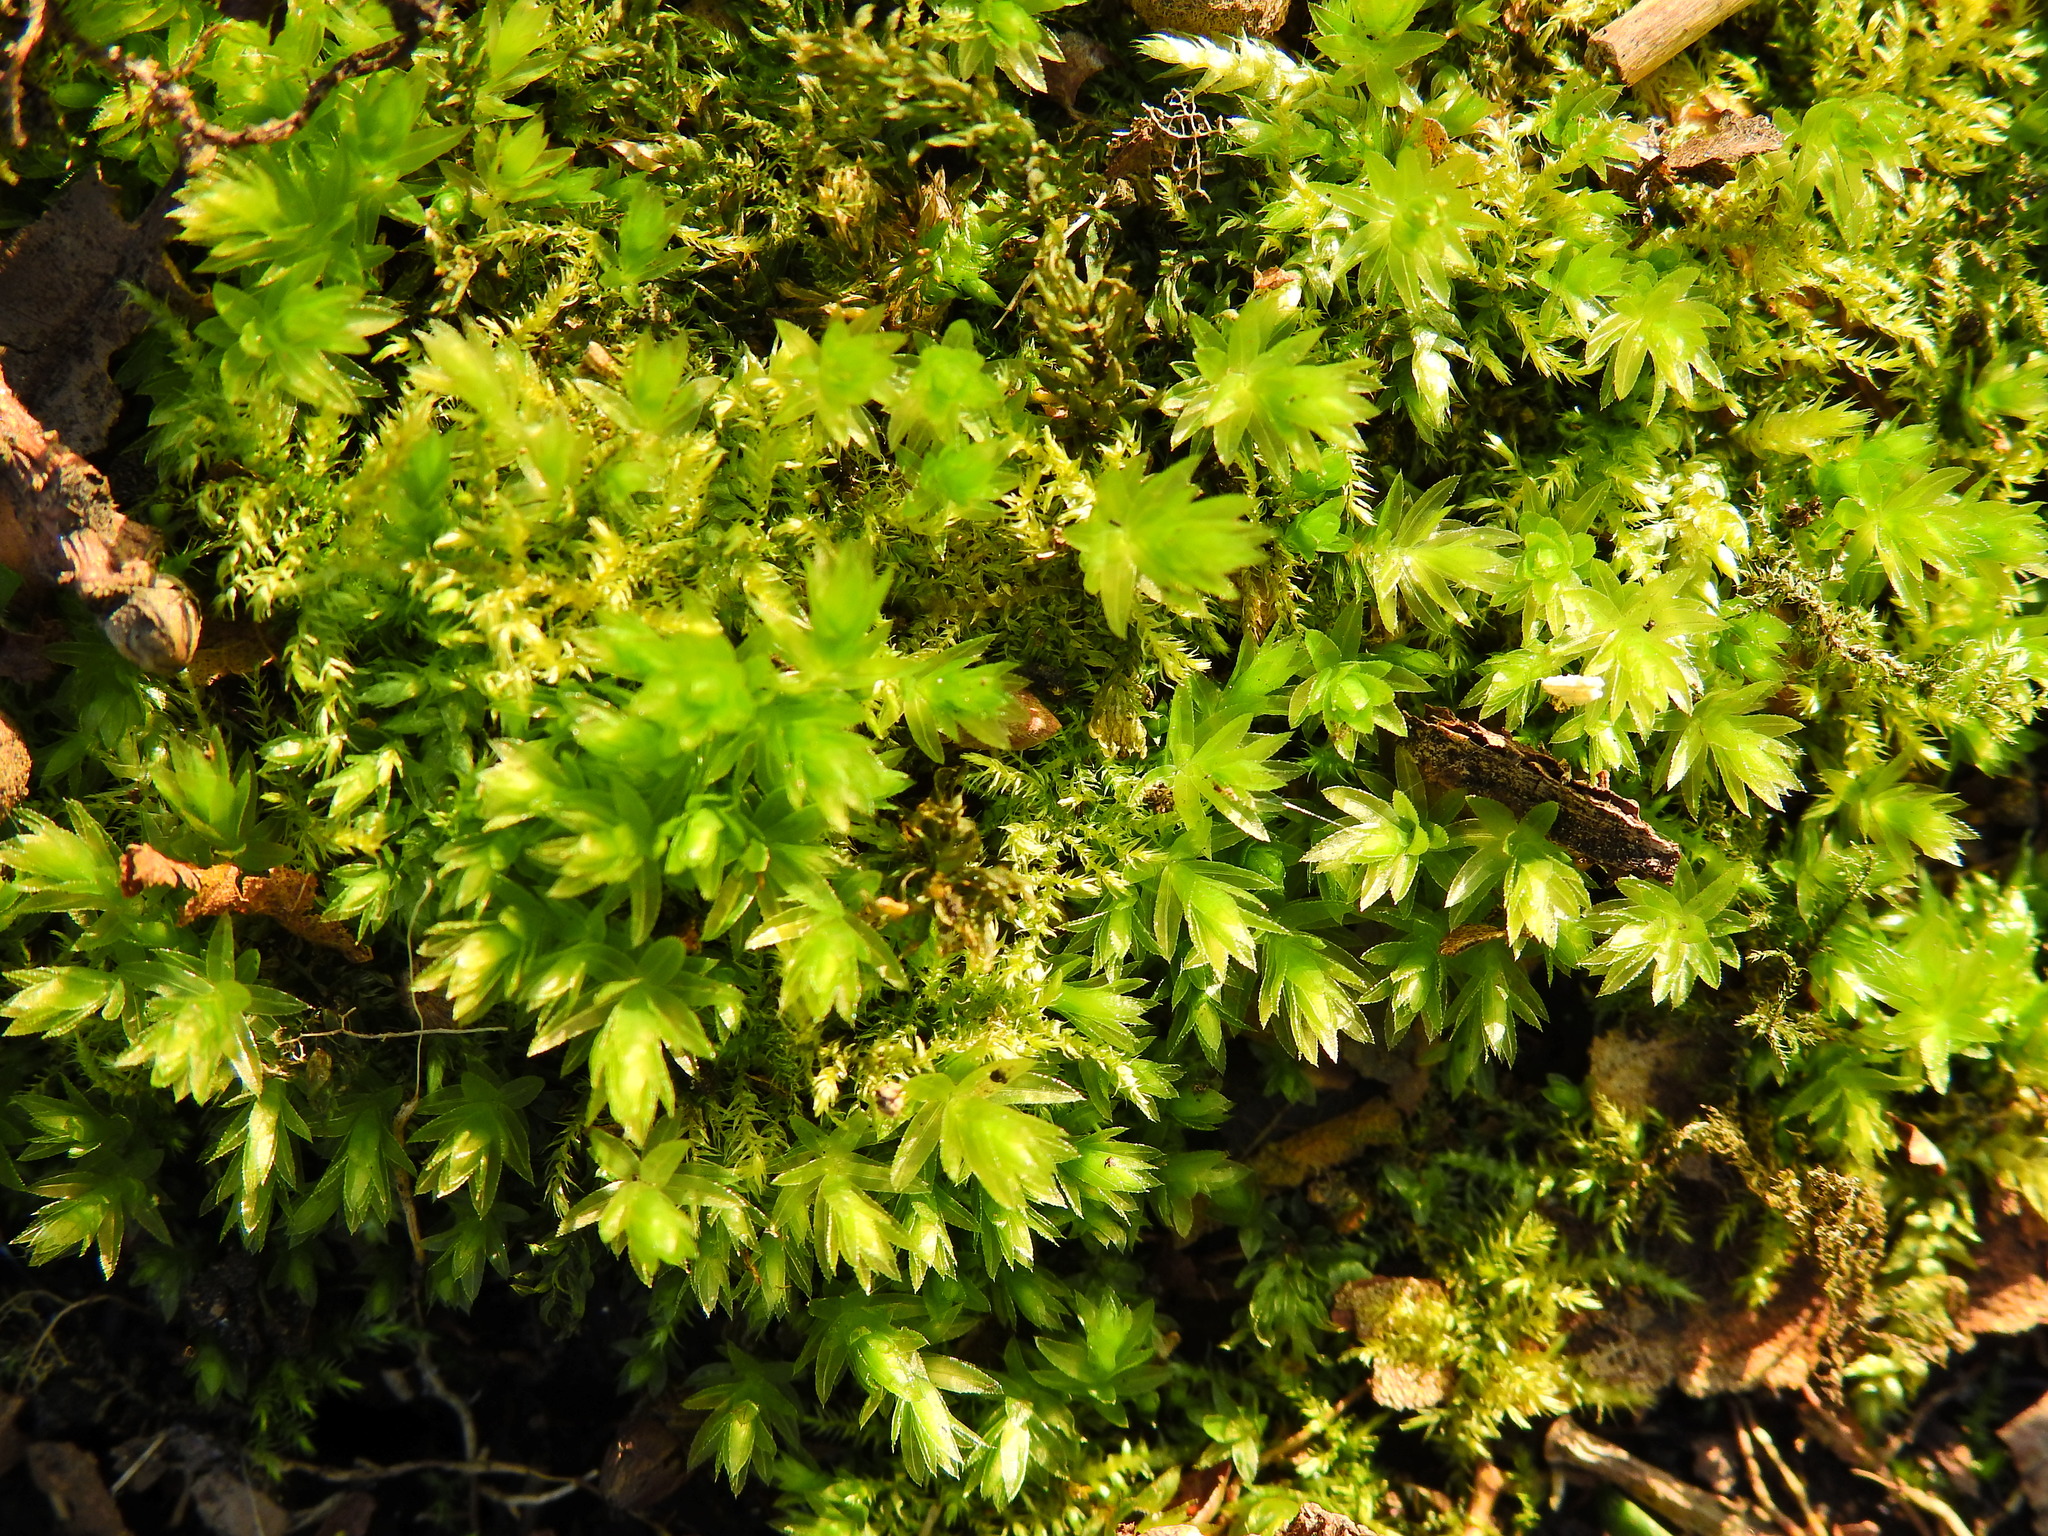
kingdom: Plantae
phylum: Bryophyta
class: Bryopsida
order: Bryales
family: Mniaceae
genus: Mnium
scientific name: Mnium hornum
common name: Swan's-neck leafy moss
